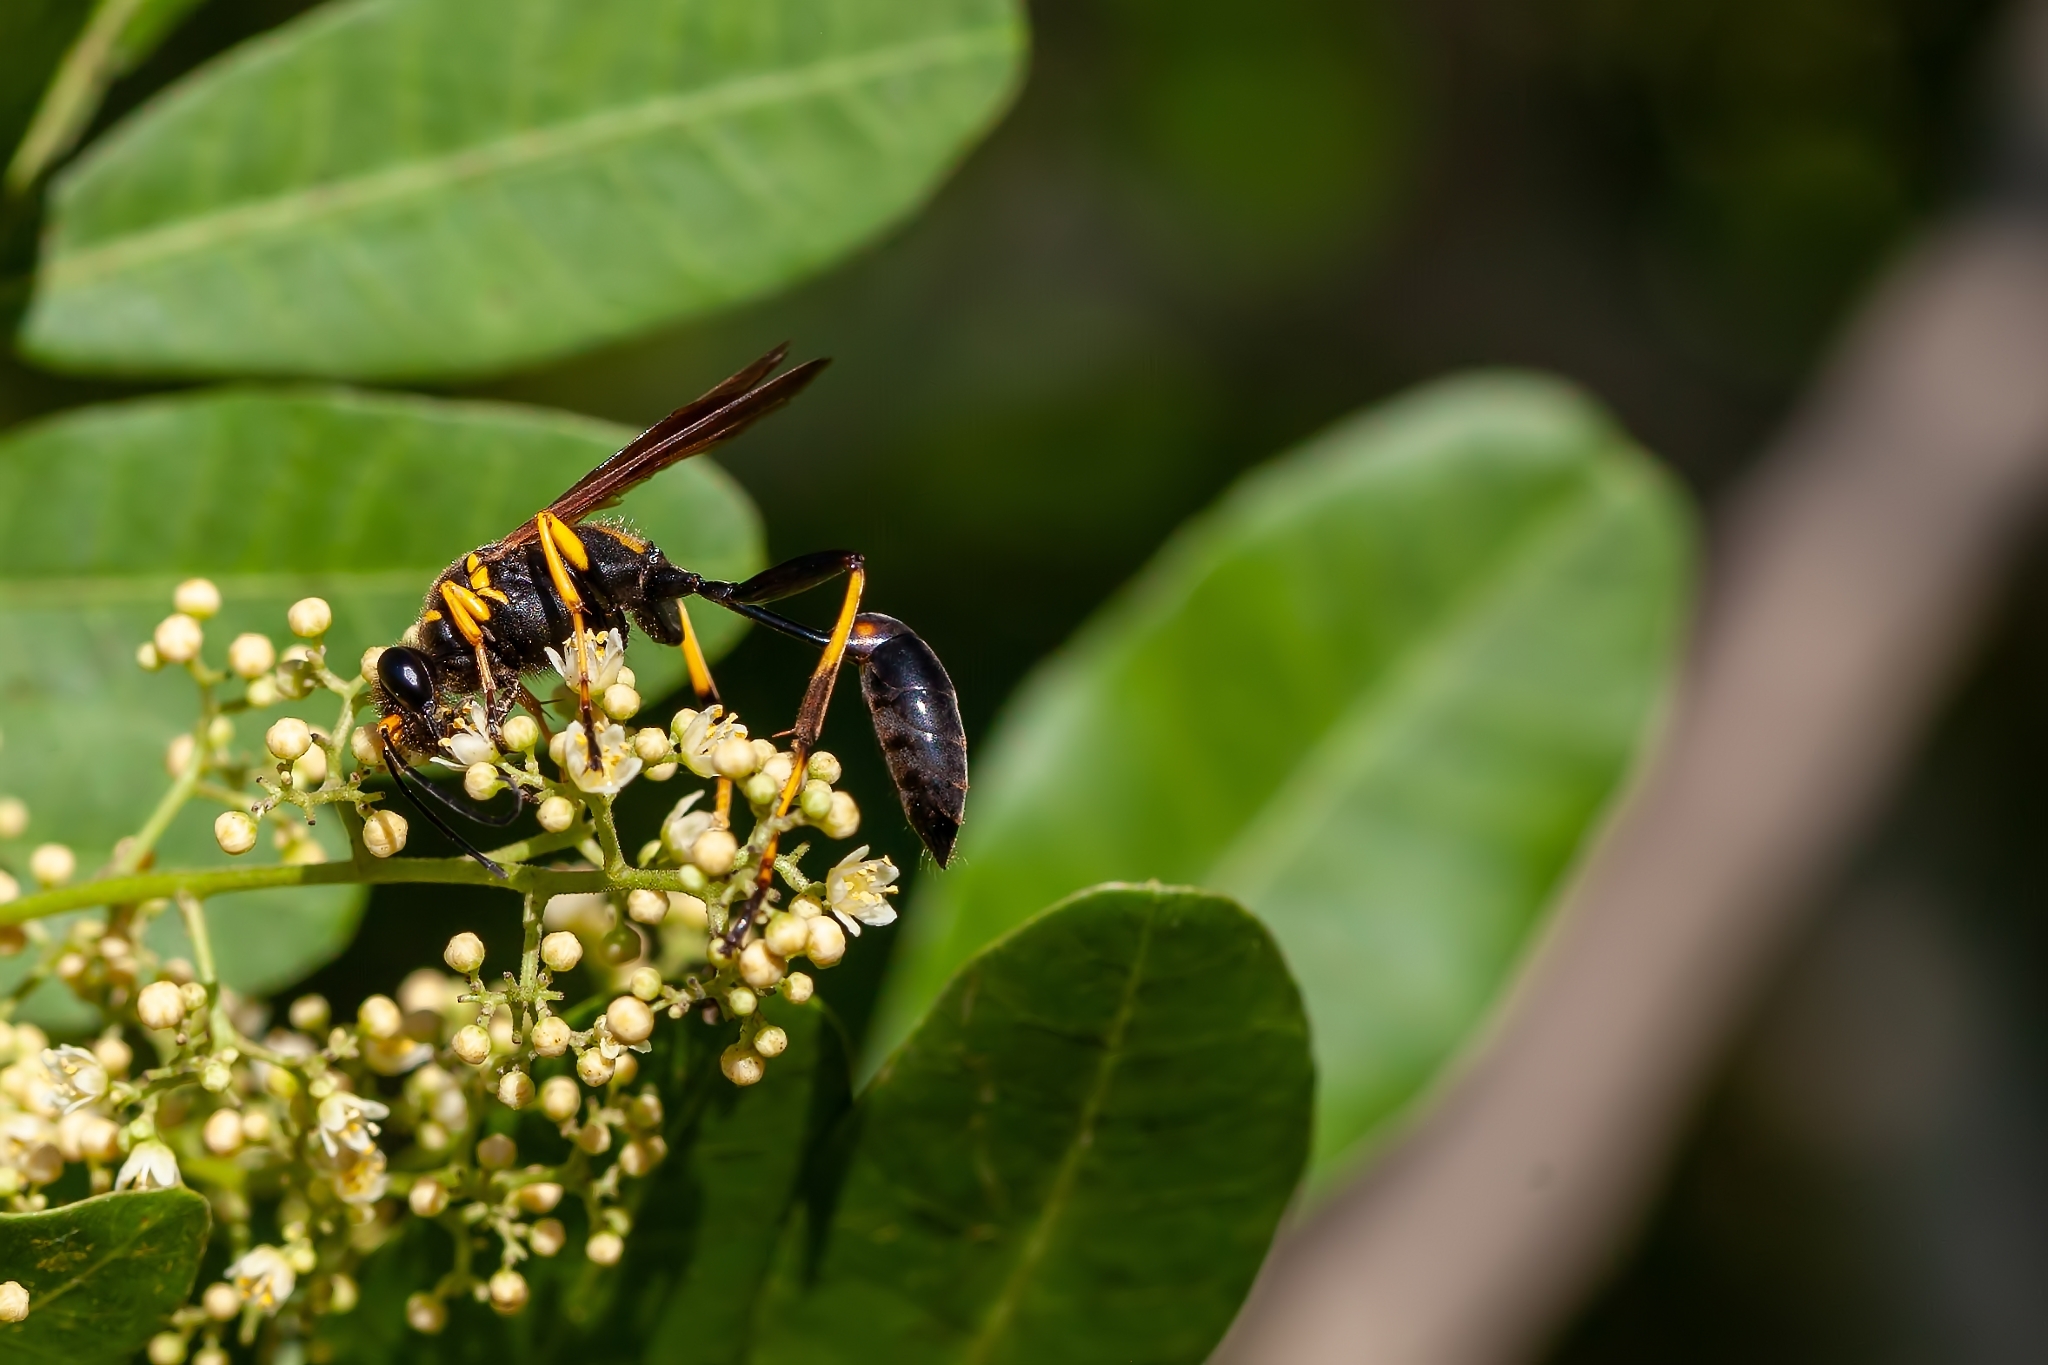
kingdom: Animalia
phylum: Arthropoda
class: Insecta
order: Hymenoptera
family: Sphecidae
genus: Sceliphron
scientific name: Sceliphron caementarium
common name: Mud dauber
